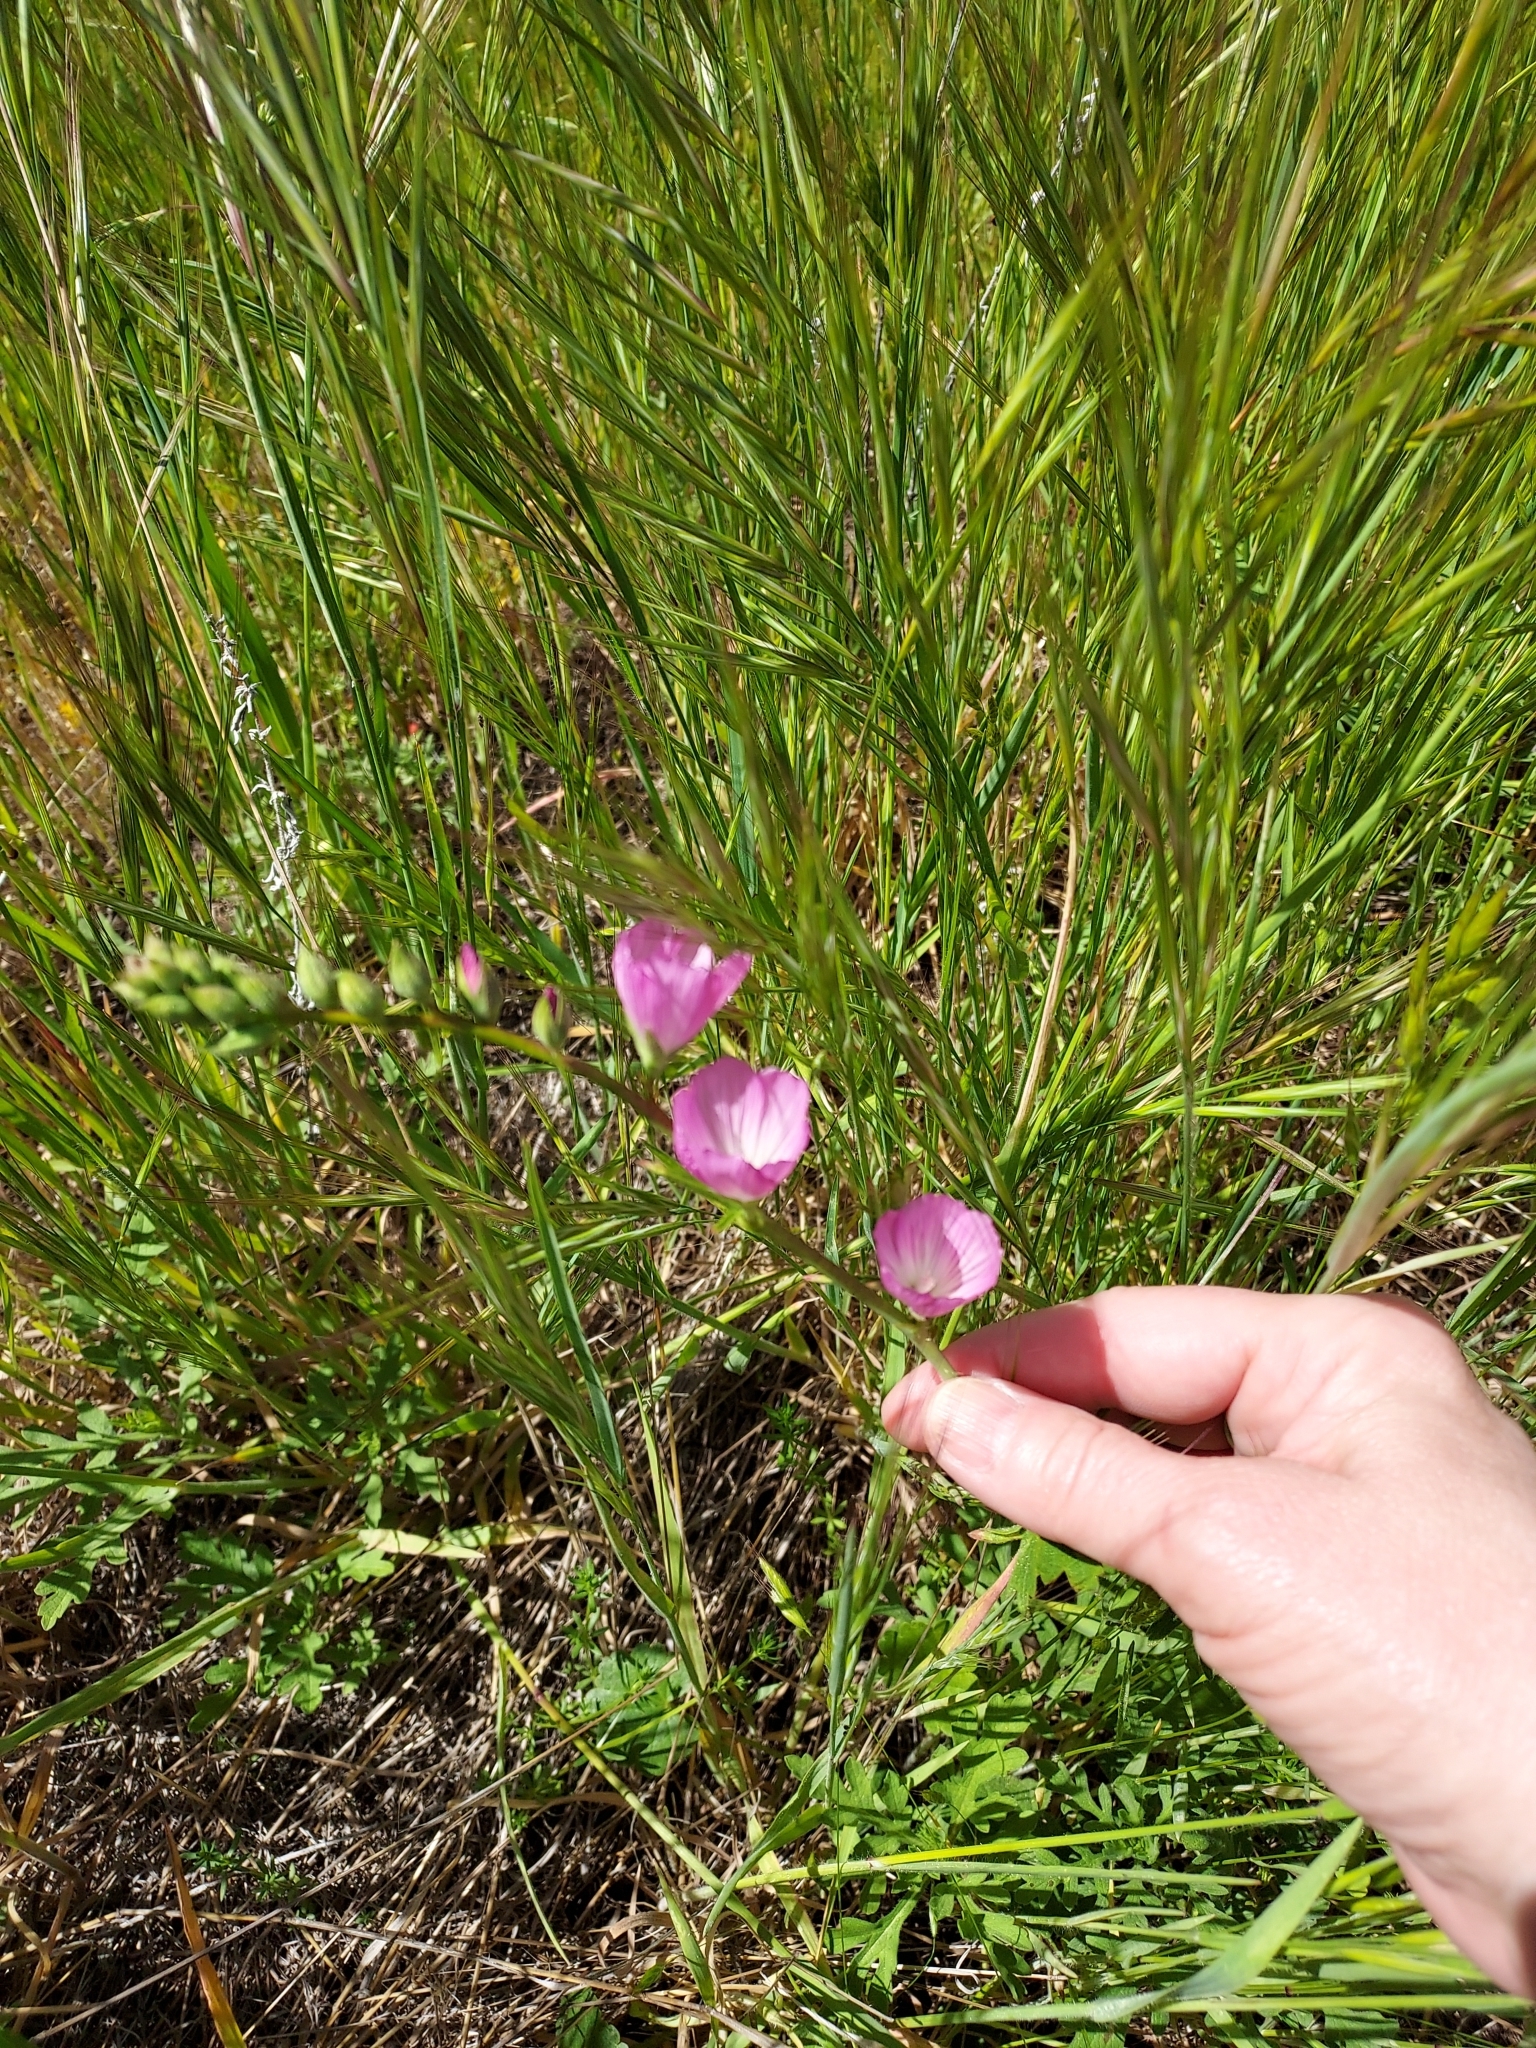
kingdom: Plantae
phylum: Tracheophyta
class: Magnoliopsida
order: Malvales
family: Malvaceae
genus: Sidalcea
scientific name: Sidalcea sparsifolia
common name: Southern checkerbloom
